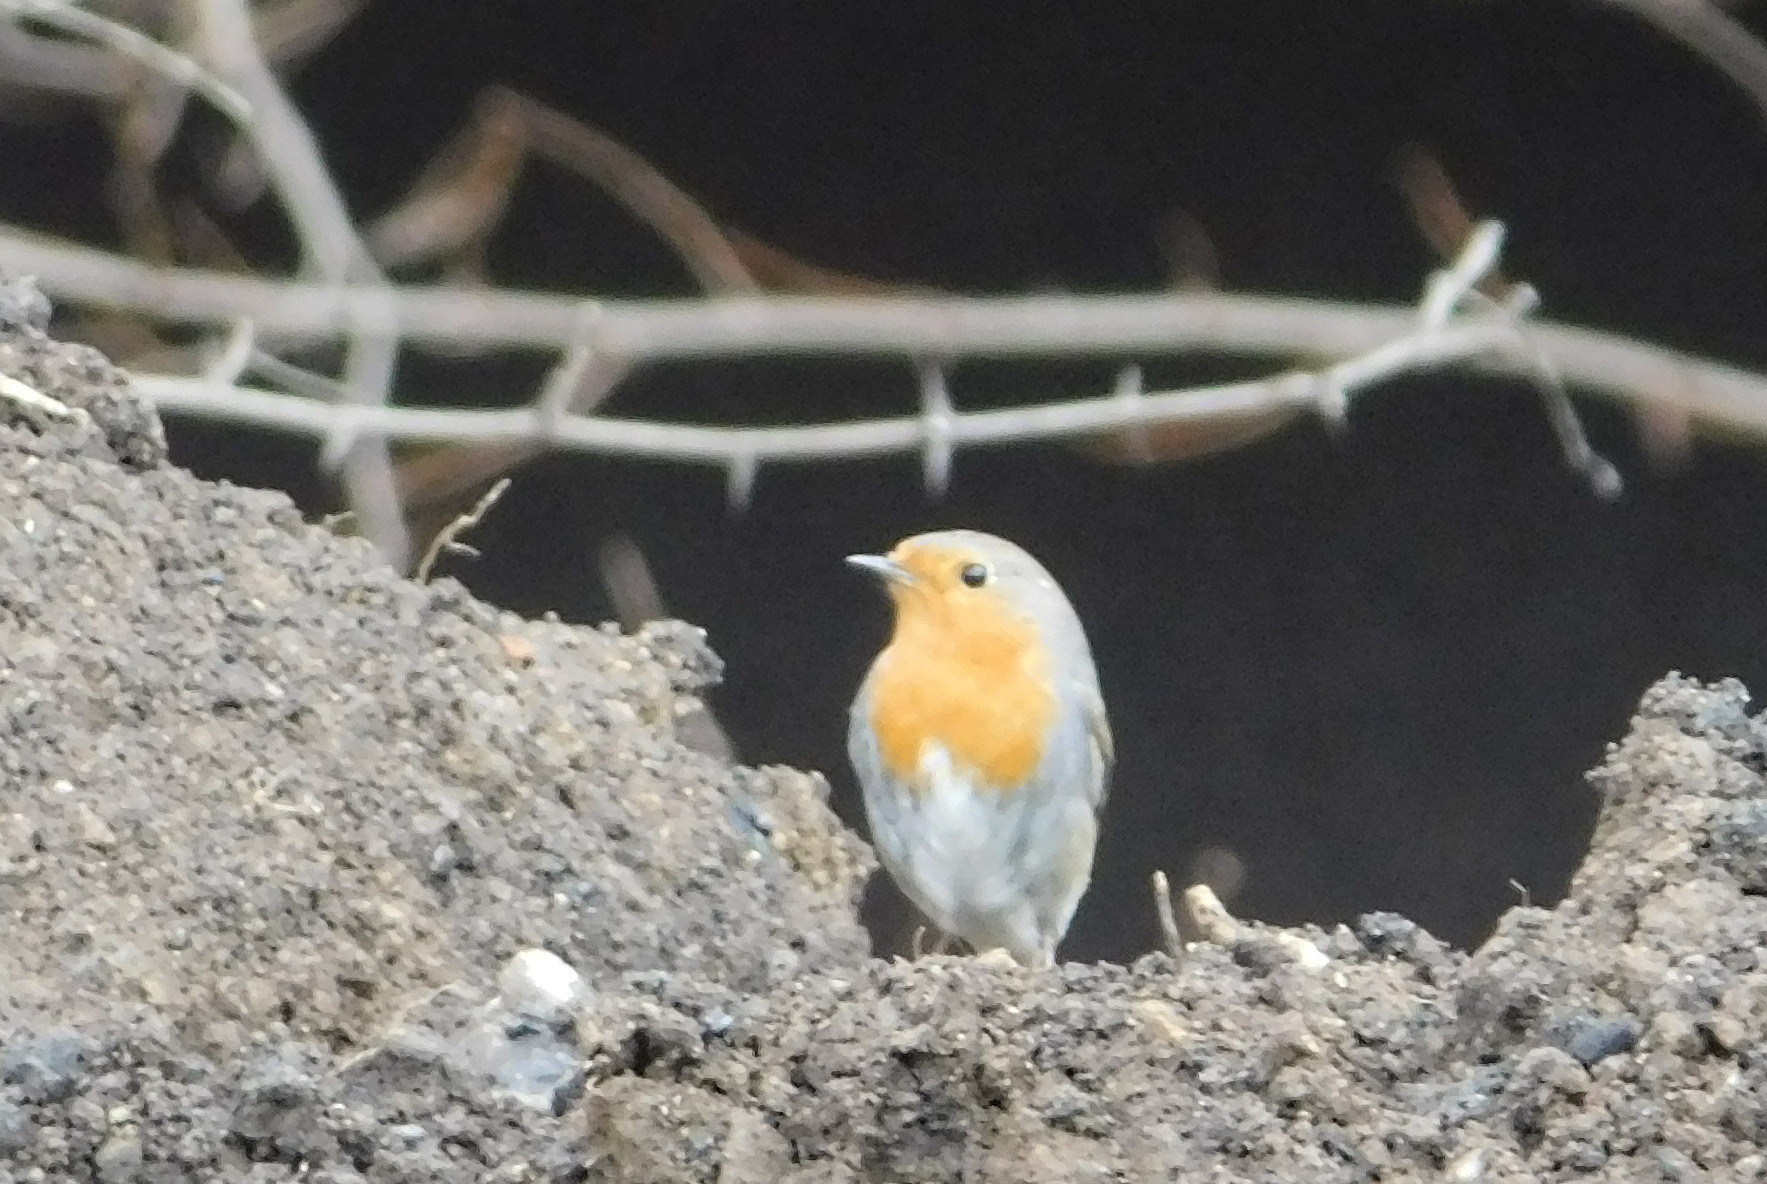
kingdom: Animalia
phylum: Chordata
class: Aves
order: Passeriformes
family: Muscicapidae
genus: Erithacus
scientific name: Erithacus rubecula
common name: European robin
